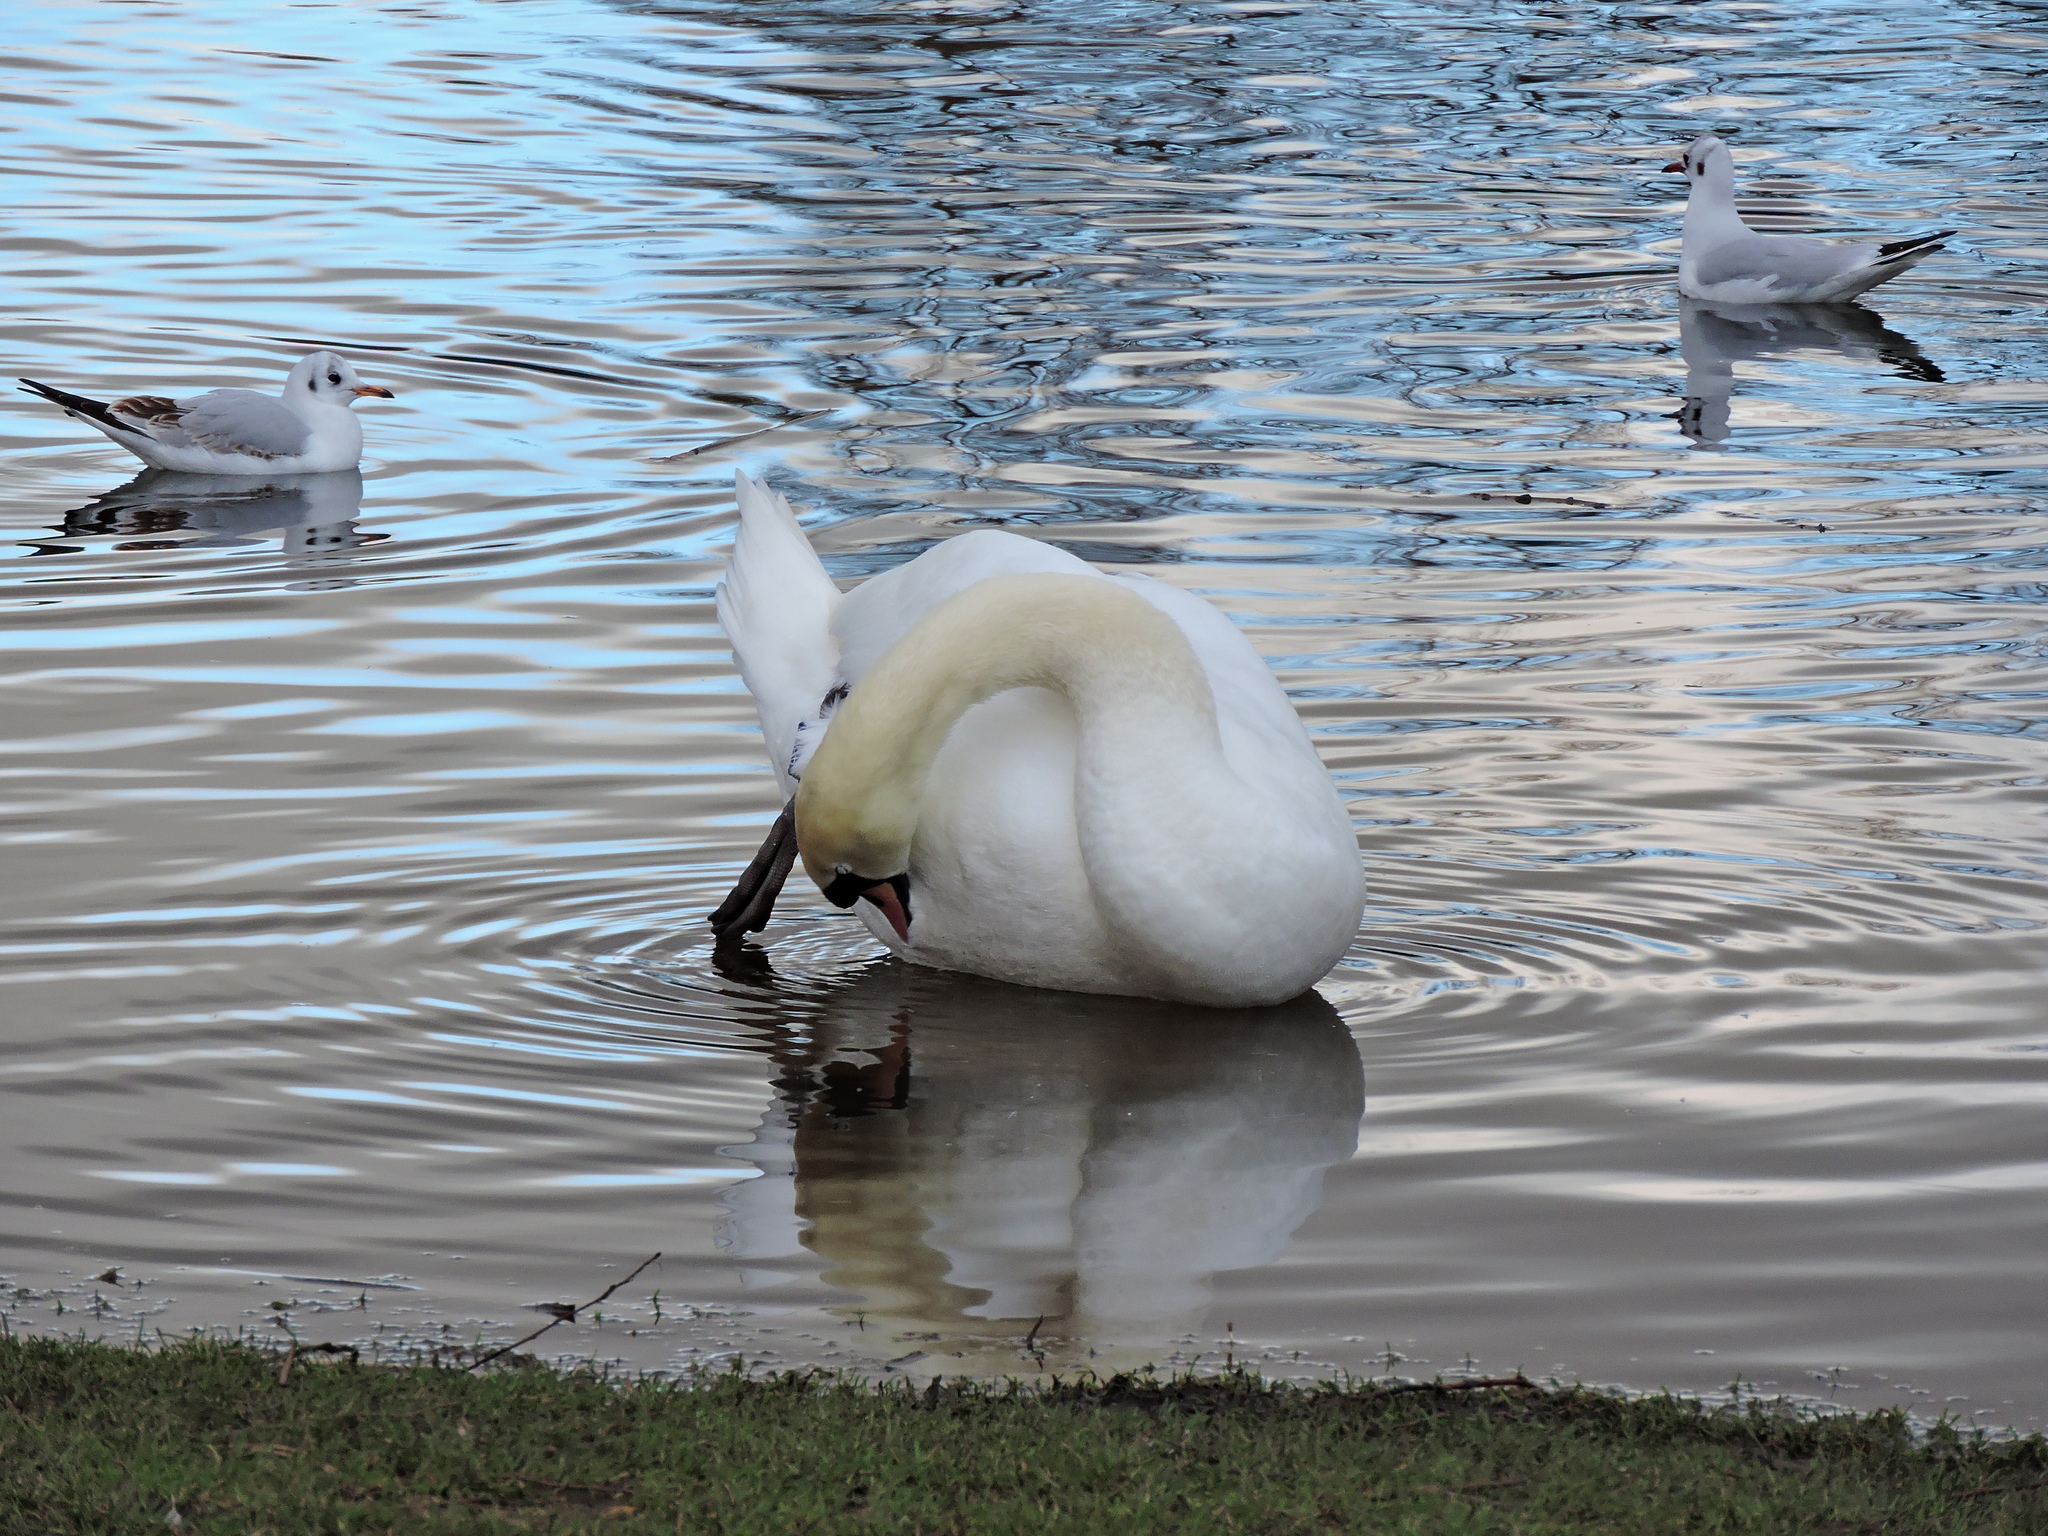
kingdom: Animalia
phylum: Chordata
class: Aves
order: Anseriformes
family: Anatidae
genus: Cygnus
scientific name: Cygnus olor
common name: Mute swan
